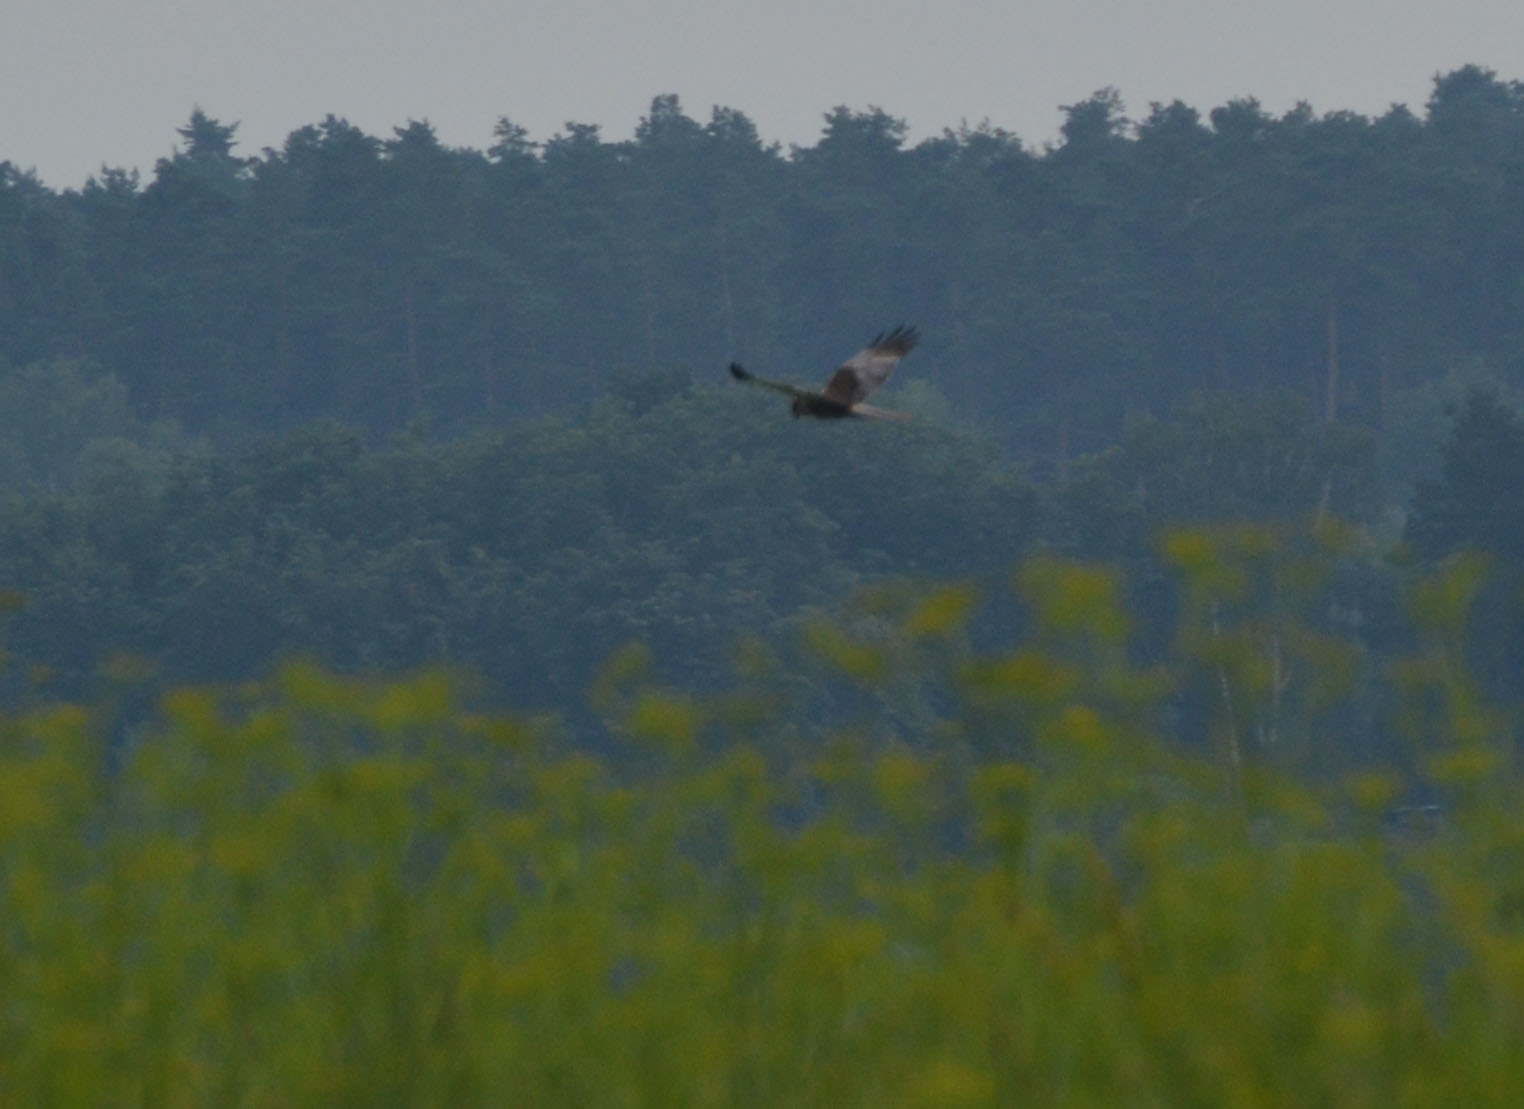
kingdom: Animalia
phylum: Chordata
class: Aves
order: Accipitriformes
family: Accipitridae
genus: Circus
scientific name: Circus aeruginosus
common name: Western marsh harrier
